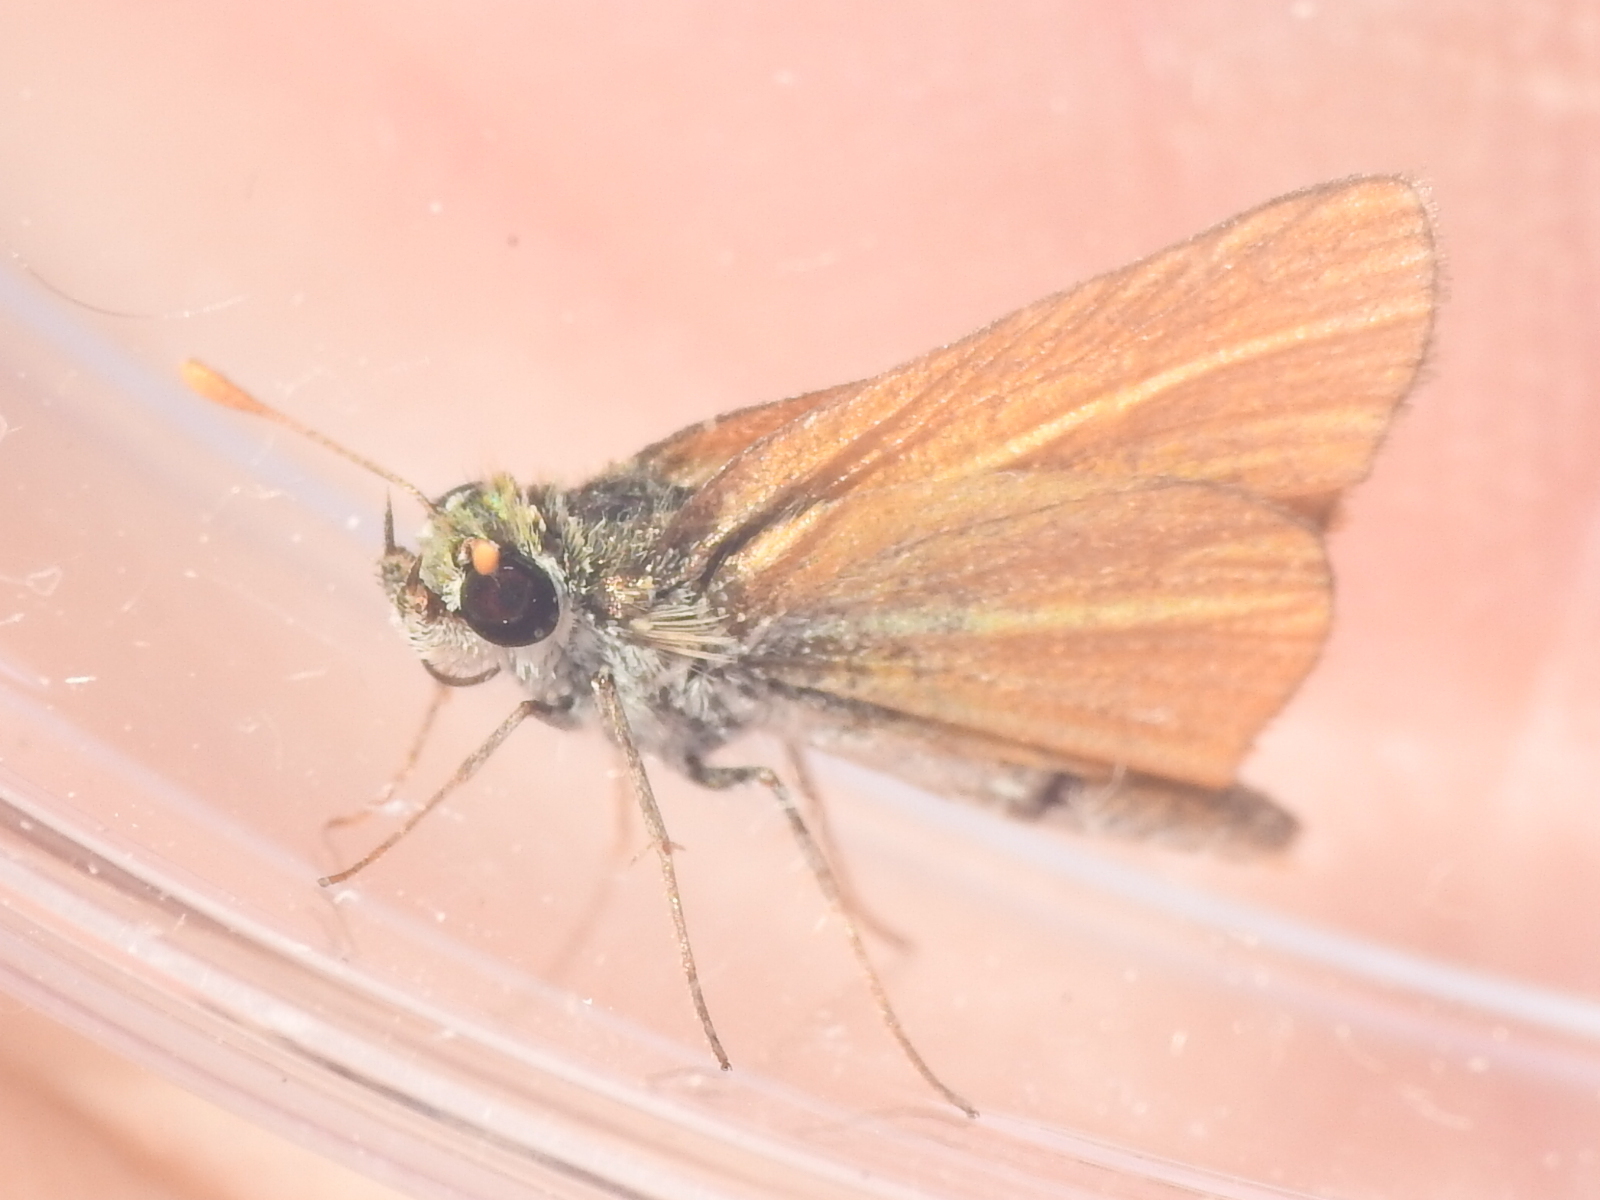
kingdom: Animalia
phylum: Arthropoda
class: Insecta
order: Lepidoptera
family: Hesperiidae
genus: Copaeodes
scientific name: Copaeodes minima
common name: Southern skipperling
